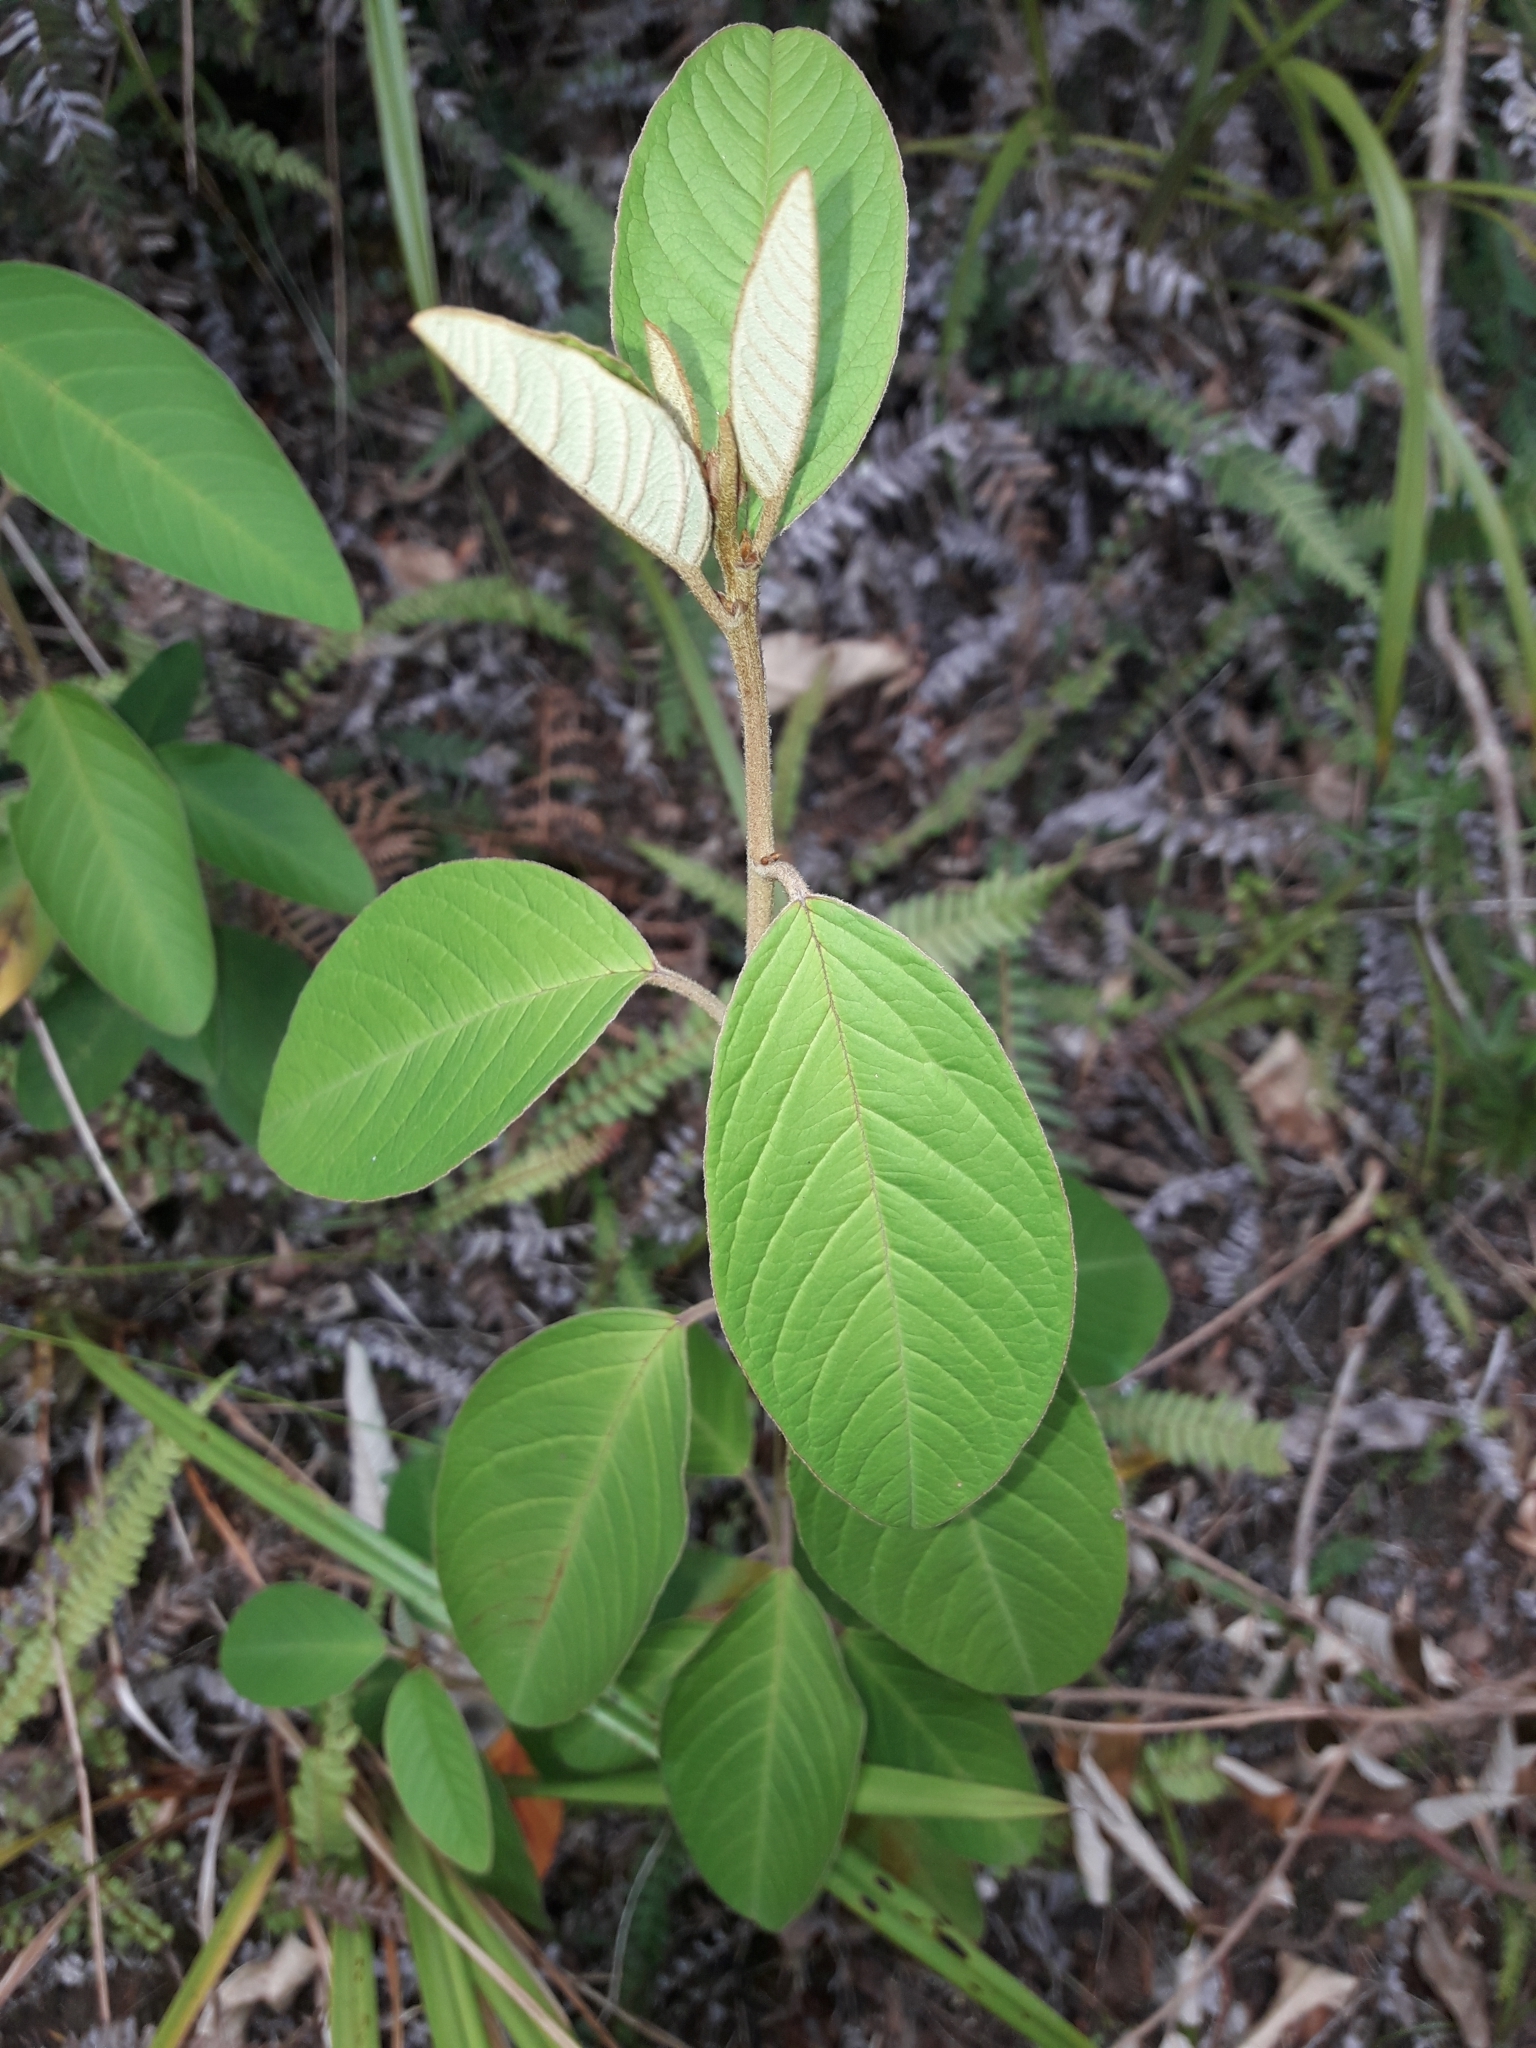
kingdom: Plantae
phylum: Tracheophyta
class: Magnoliopsida
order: Rosales
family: Rhamnaceae
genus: Pomaderris
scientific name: Pomaderris kumeraho
